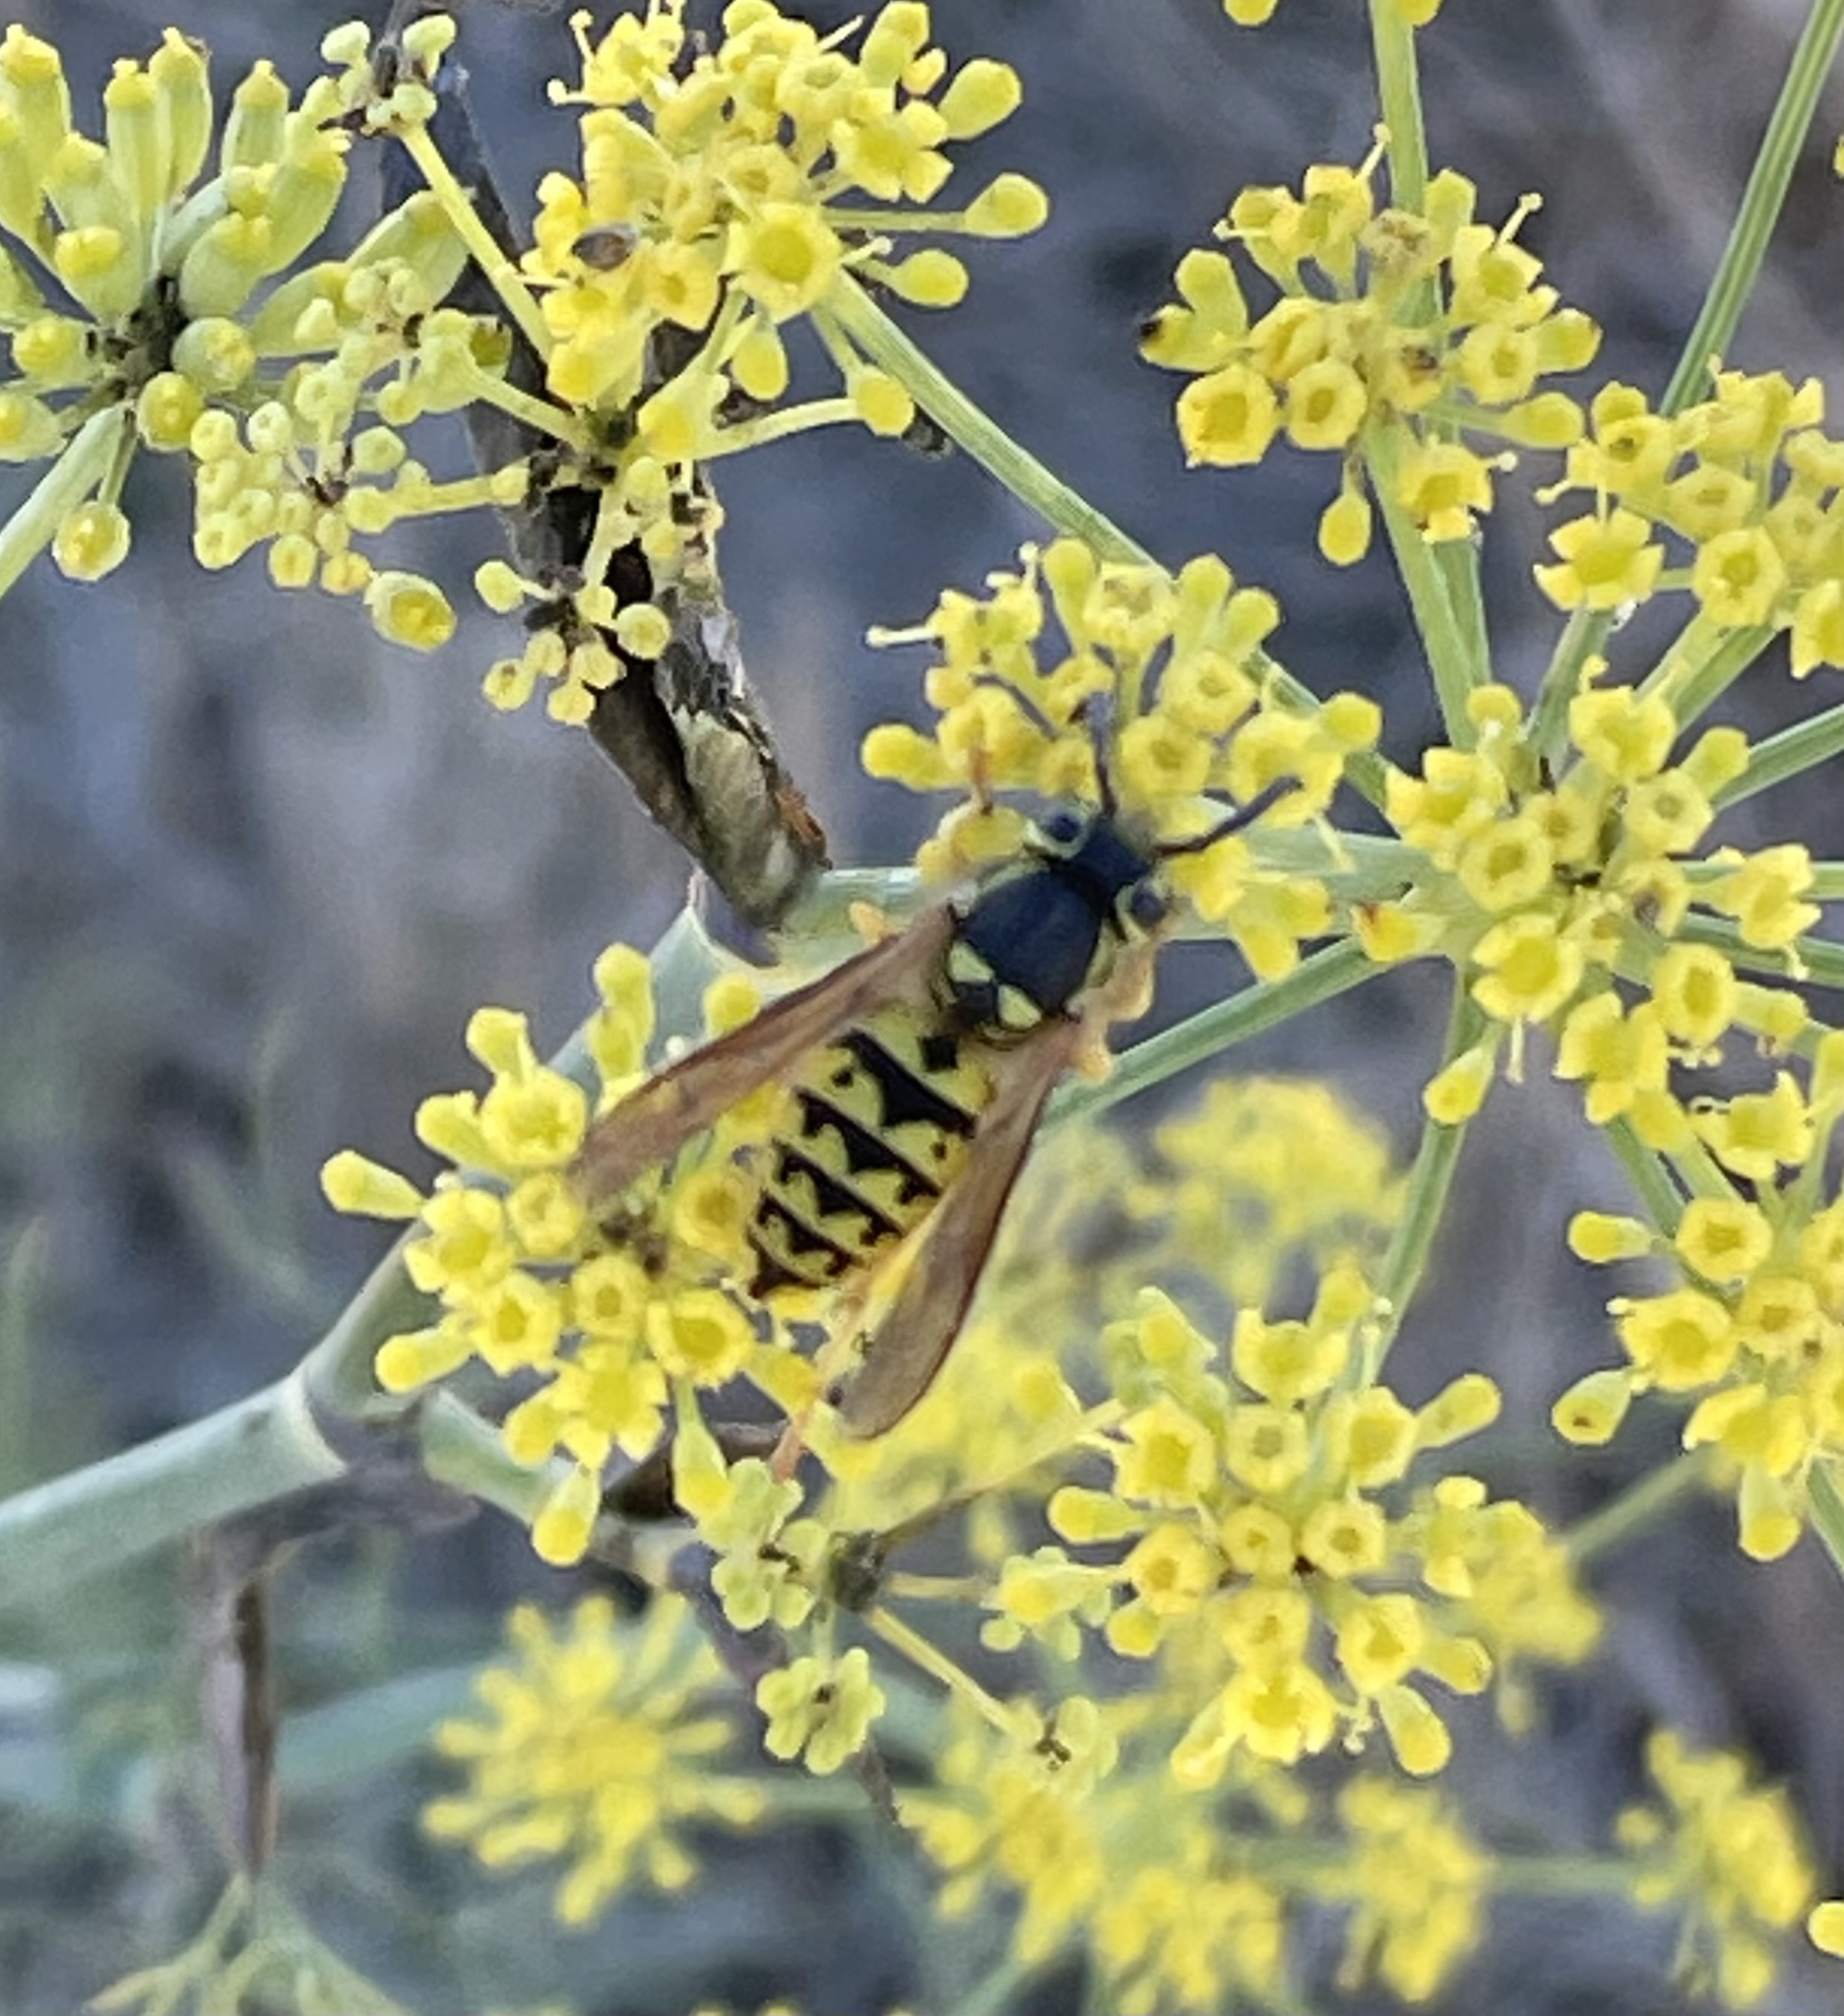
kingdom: Plantae
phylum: Tracheophyta
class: Magnoliopsida
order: Apiales
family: Apiaceae
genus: Foeniculum
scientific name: Foeniculum vulgare
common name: Fennel
